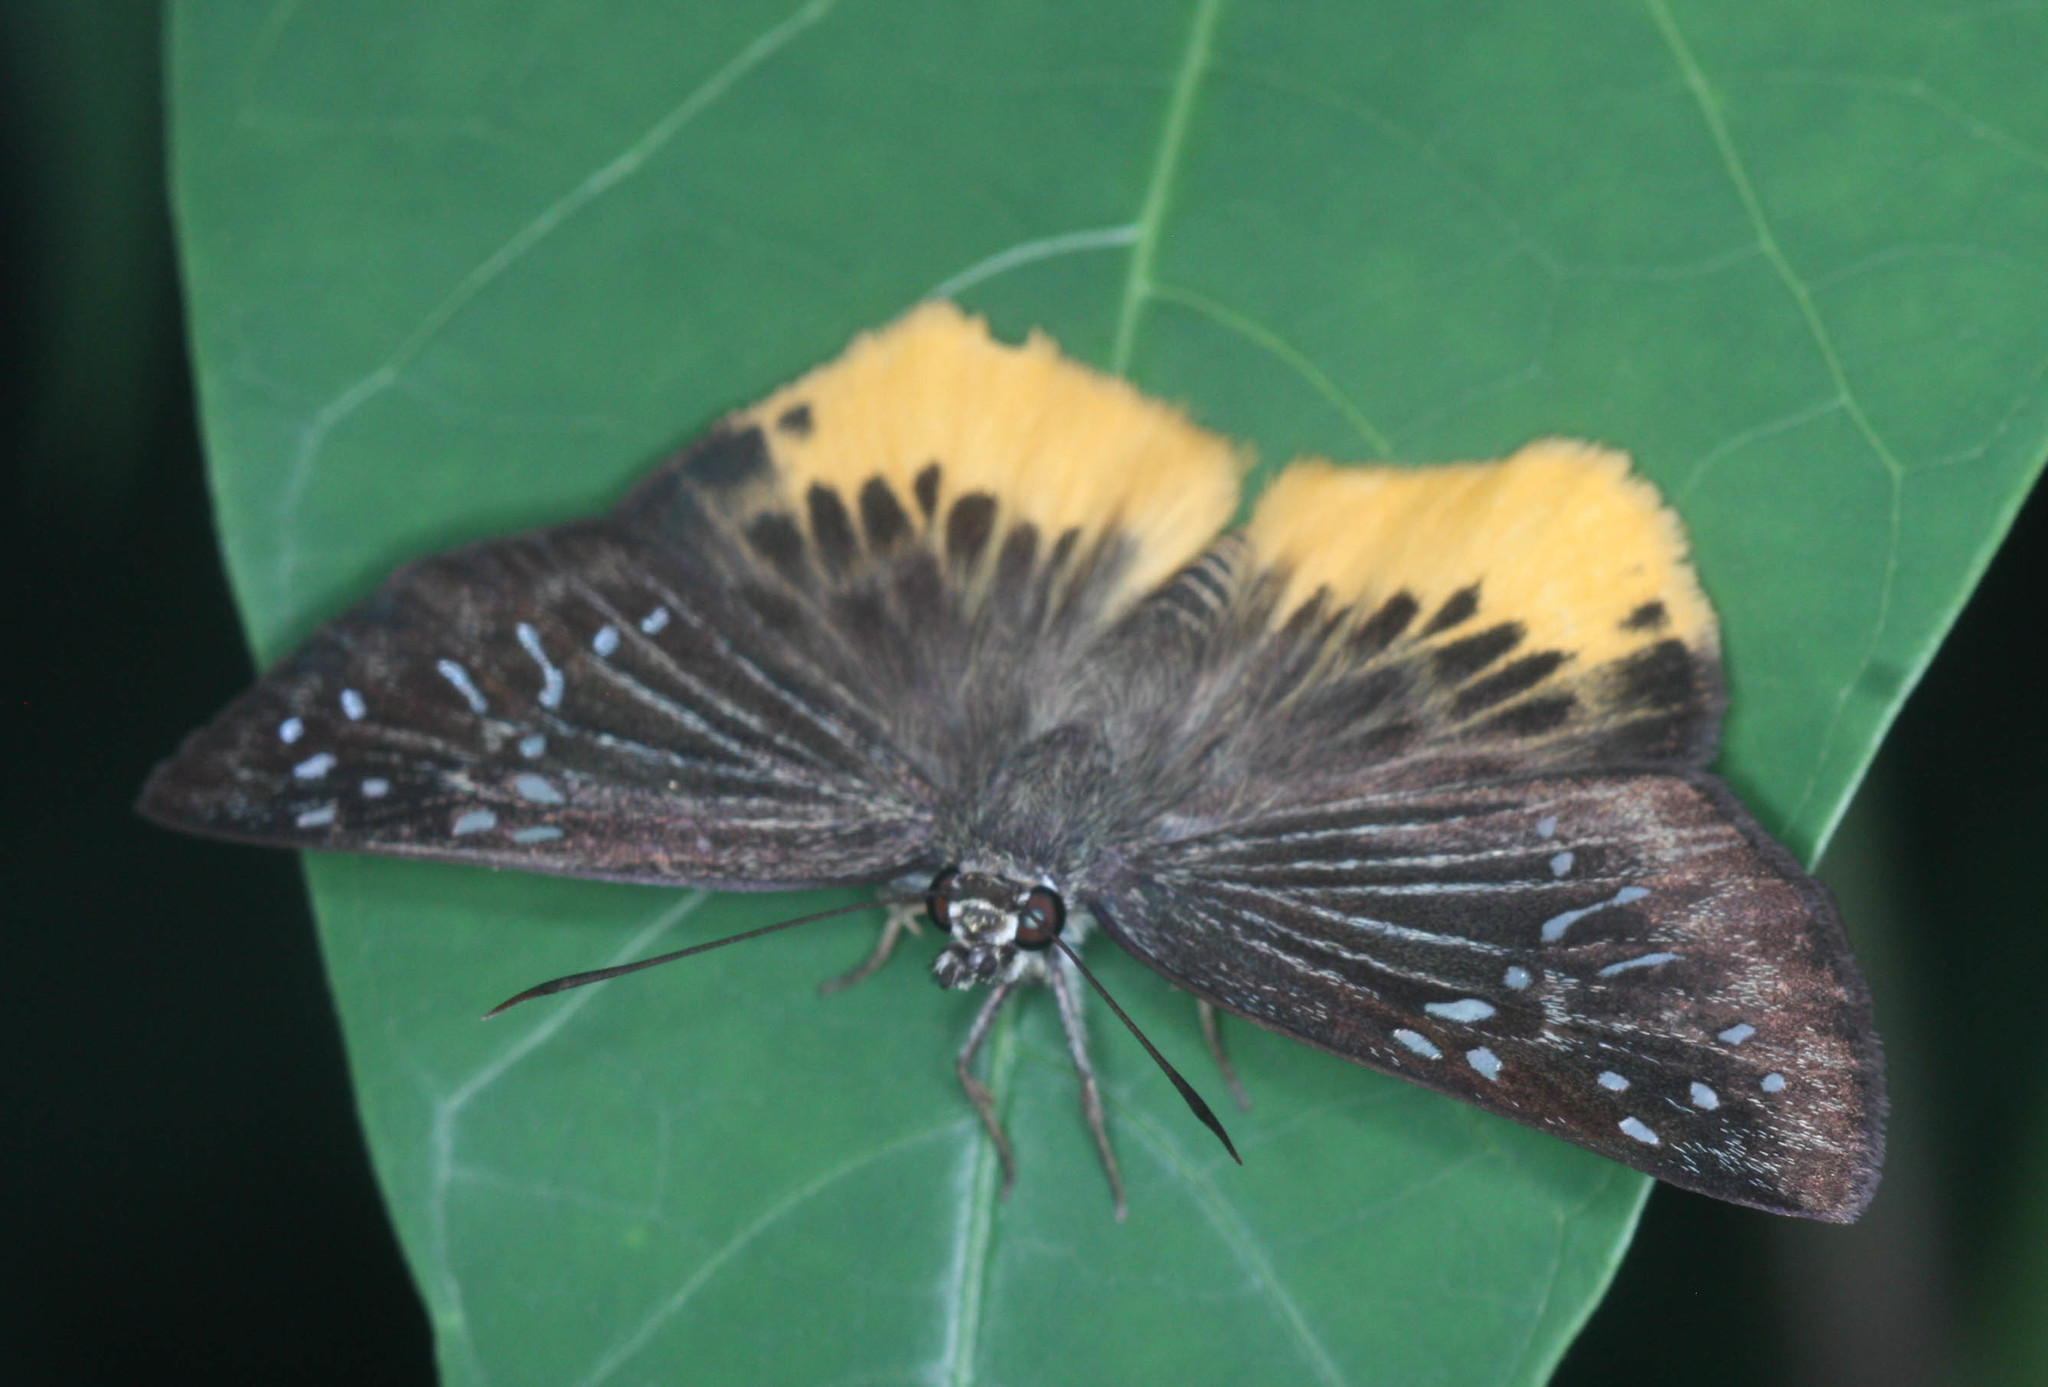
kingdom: Animalia
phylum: Arthropoda
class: Insecta
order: Lepidoptera
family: Hesperiidae
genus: Mooreana
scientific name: Mooreana trichoneura
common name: Yellow flat
